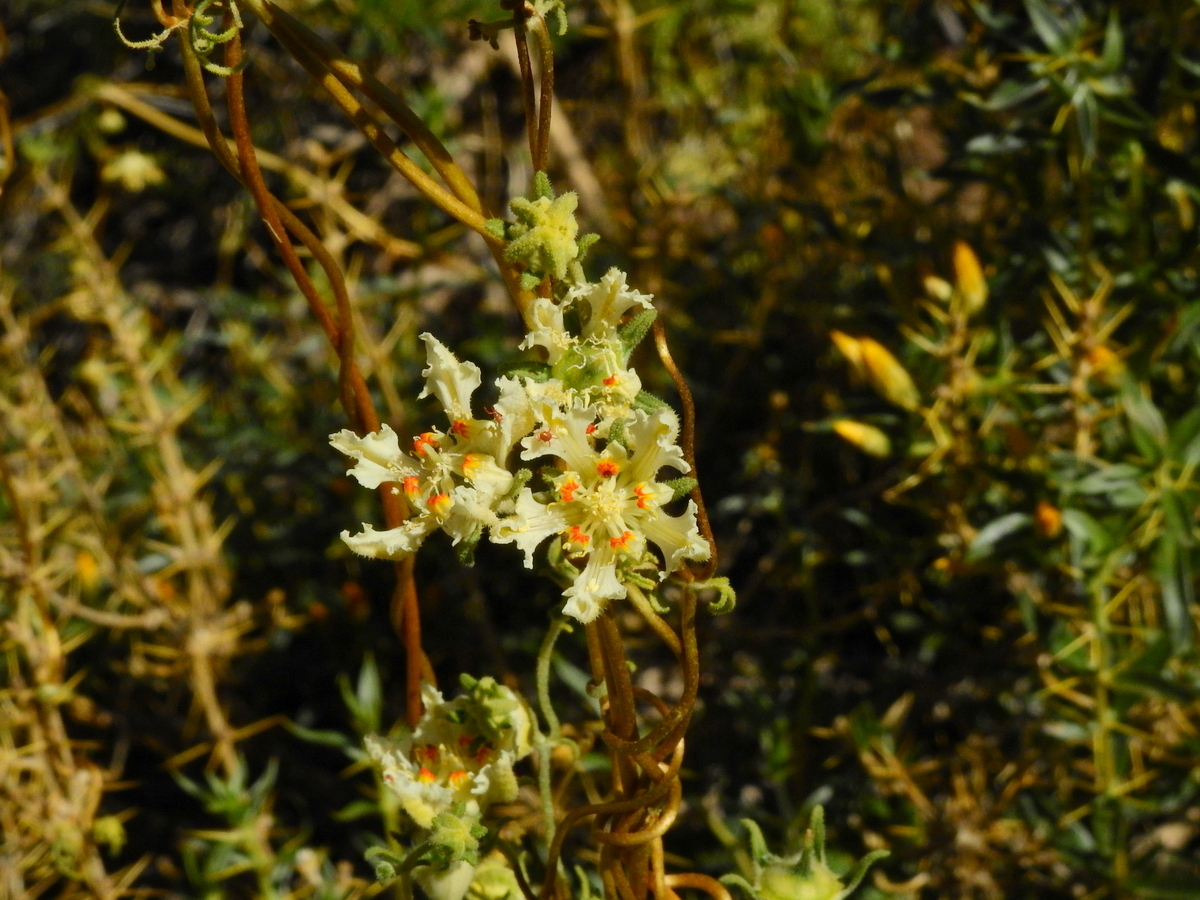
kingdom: Plantae
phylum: Tracheophyta
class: Magnoliopsida
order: Cornales
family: Loasaceae
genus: Pinnasa
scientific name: Pinnasa amabilis
